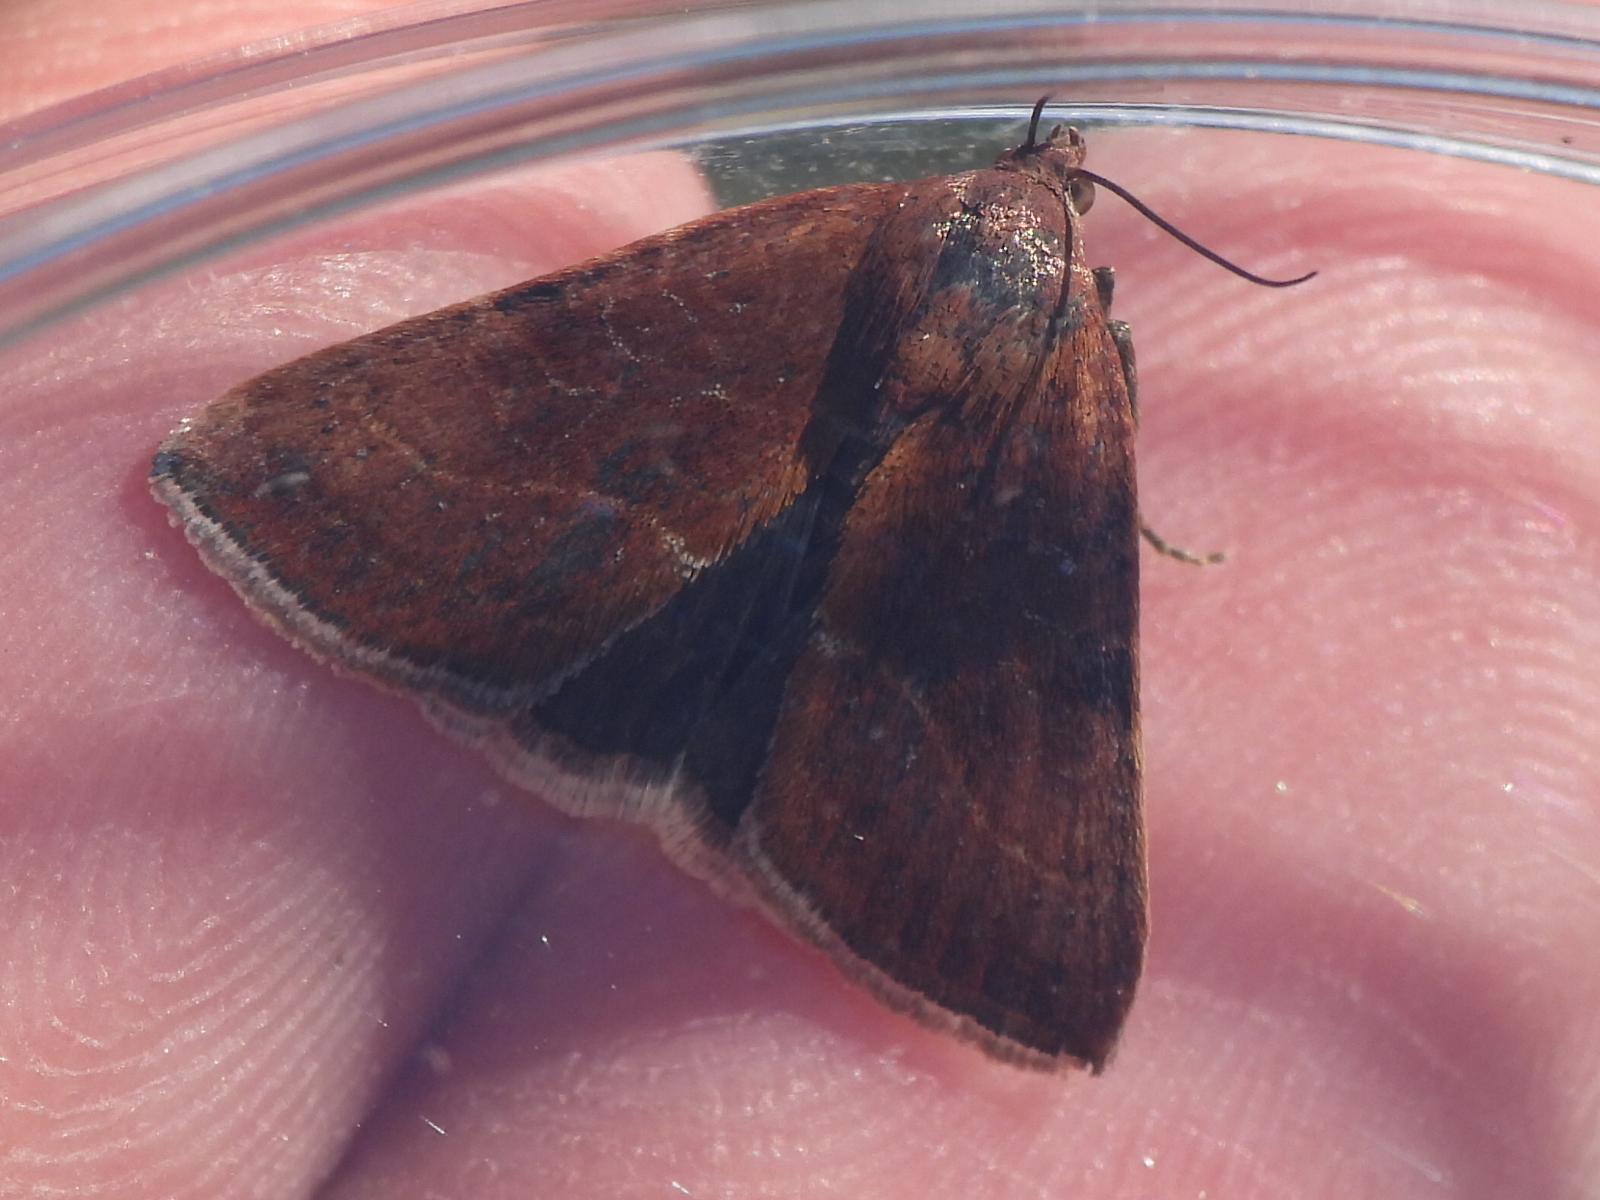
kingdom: Animalia
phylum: Arthropoda
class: Insecta
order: Lepidoptera
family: Noctuidae
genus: Galgula
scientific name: Galgula partita
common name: Wedgeling
